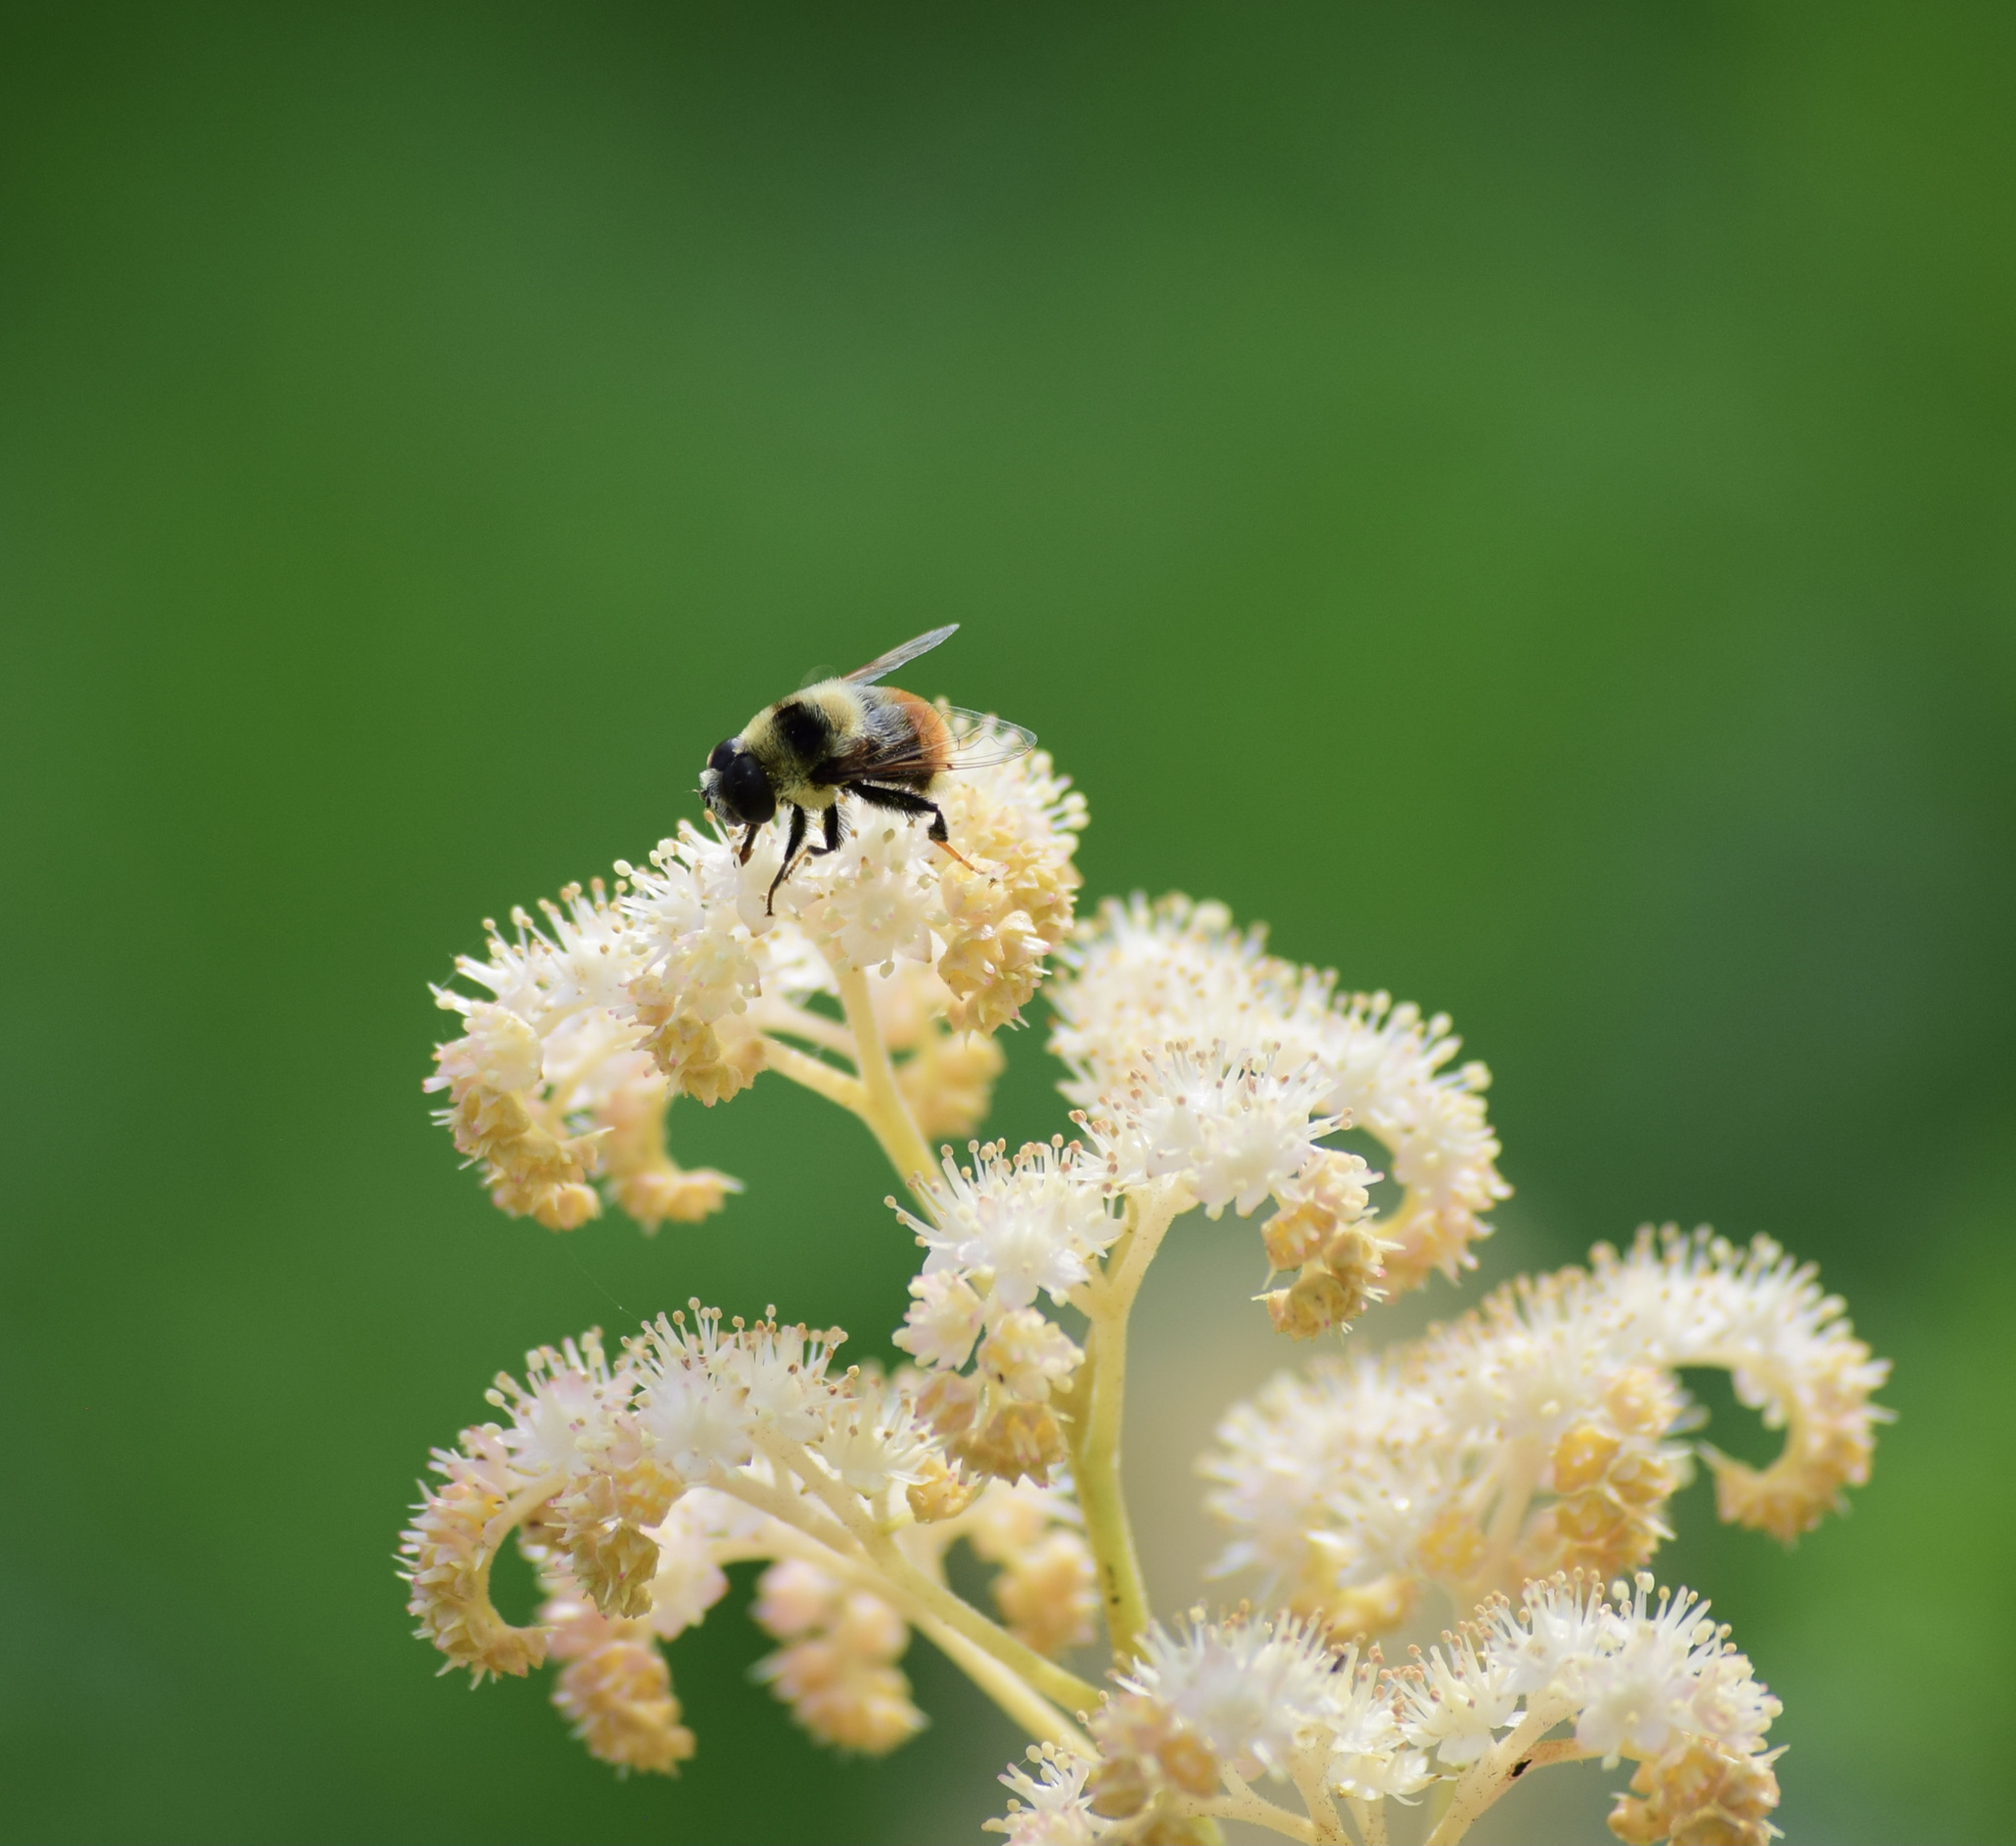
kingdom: Animalia
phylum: Arthropoda
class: Insecta
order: Diptera
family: Syrphidae
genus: Eristalis
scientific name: Eristalis flavipes
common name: Orange-legged drone fly
